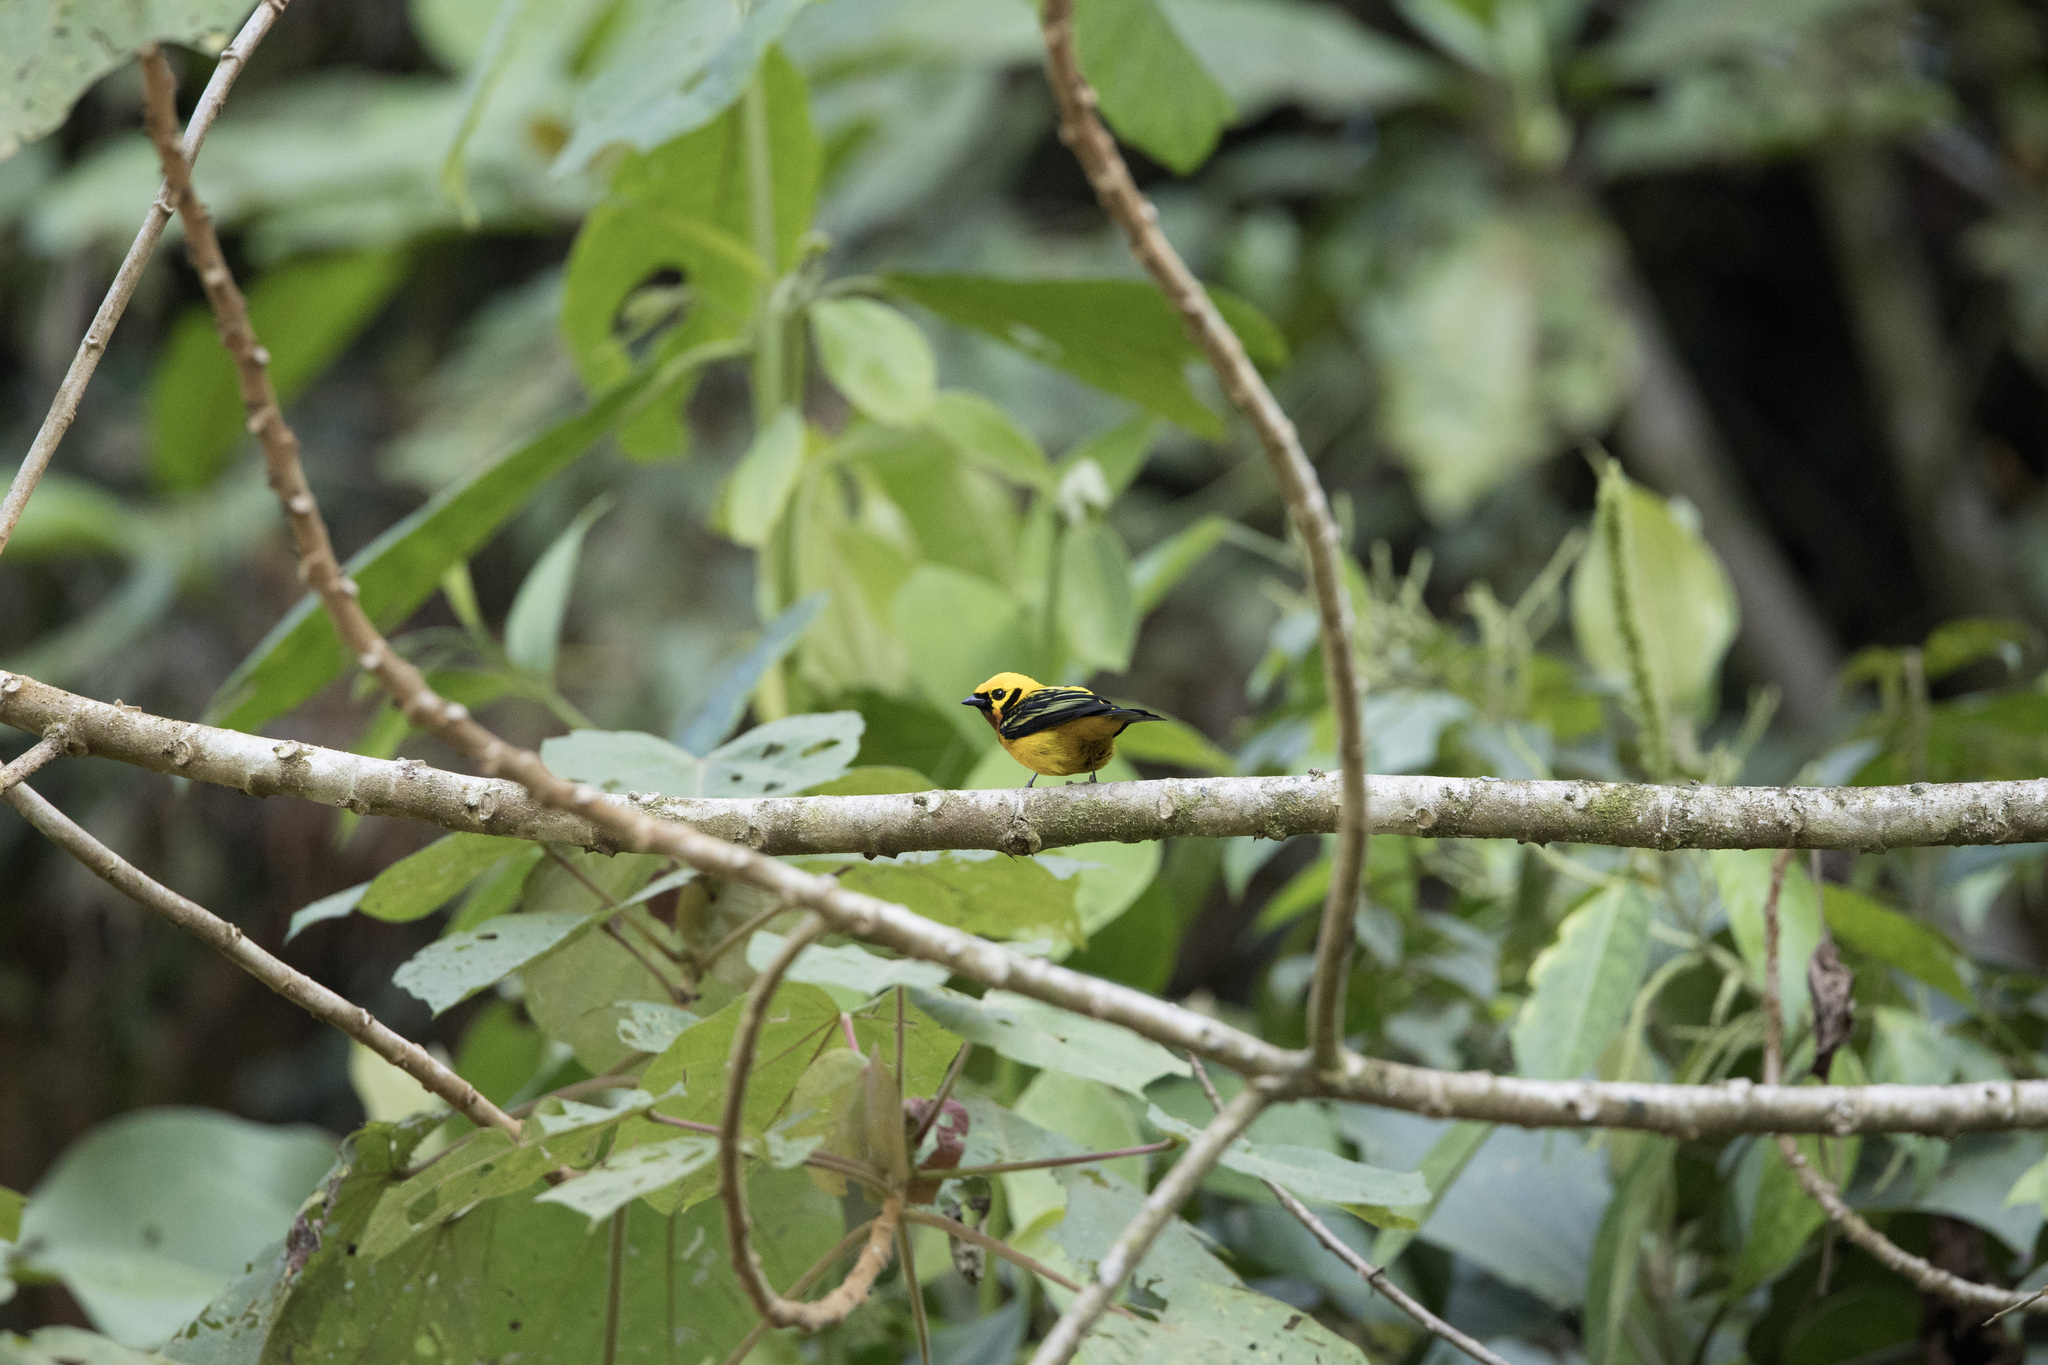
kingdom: Animalia
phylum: Chordata
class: Aves
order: Passeriformes
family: Thraupidae
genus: Tangara
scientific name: Tangara arthus
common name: Golden tanager
